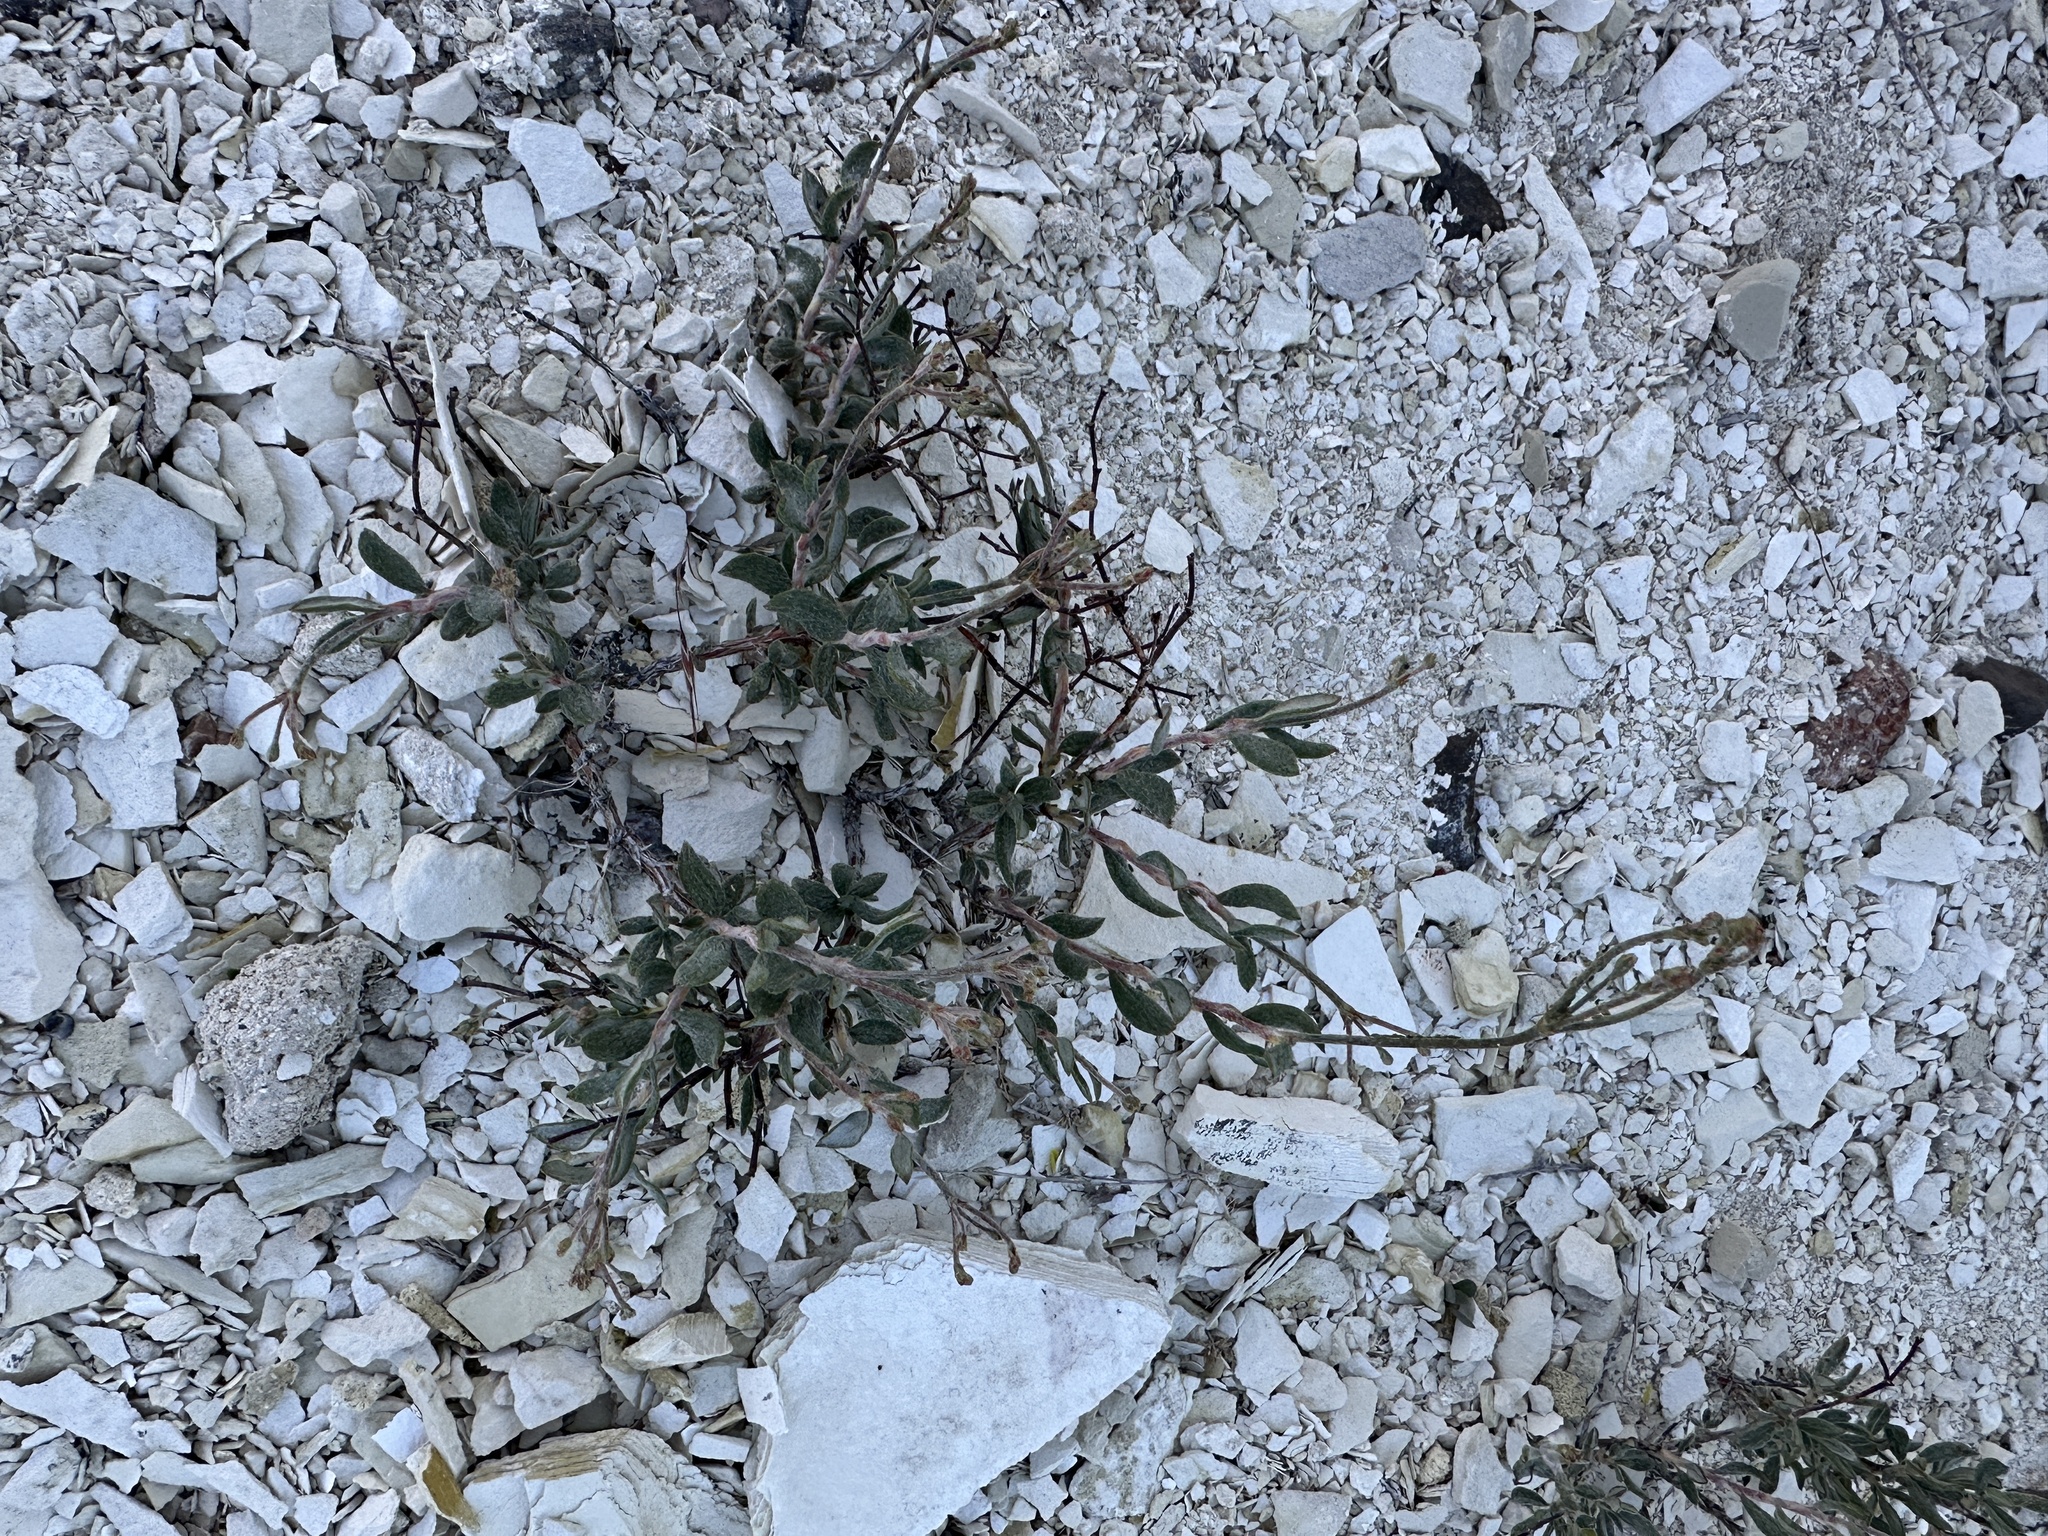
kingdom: Plantae
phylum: Tracheophyta
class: Magnoliopsida
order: Caryophyllales
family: Polygonaceae
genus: Eriogonum
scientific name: Eriogonum microtheca
